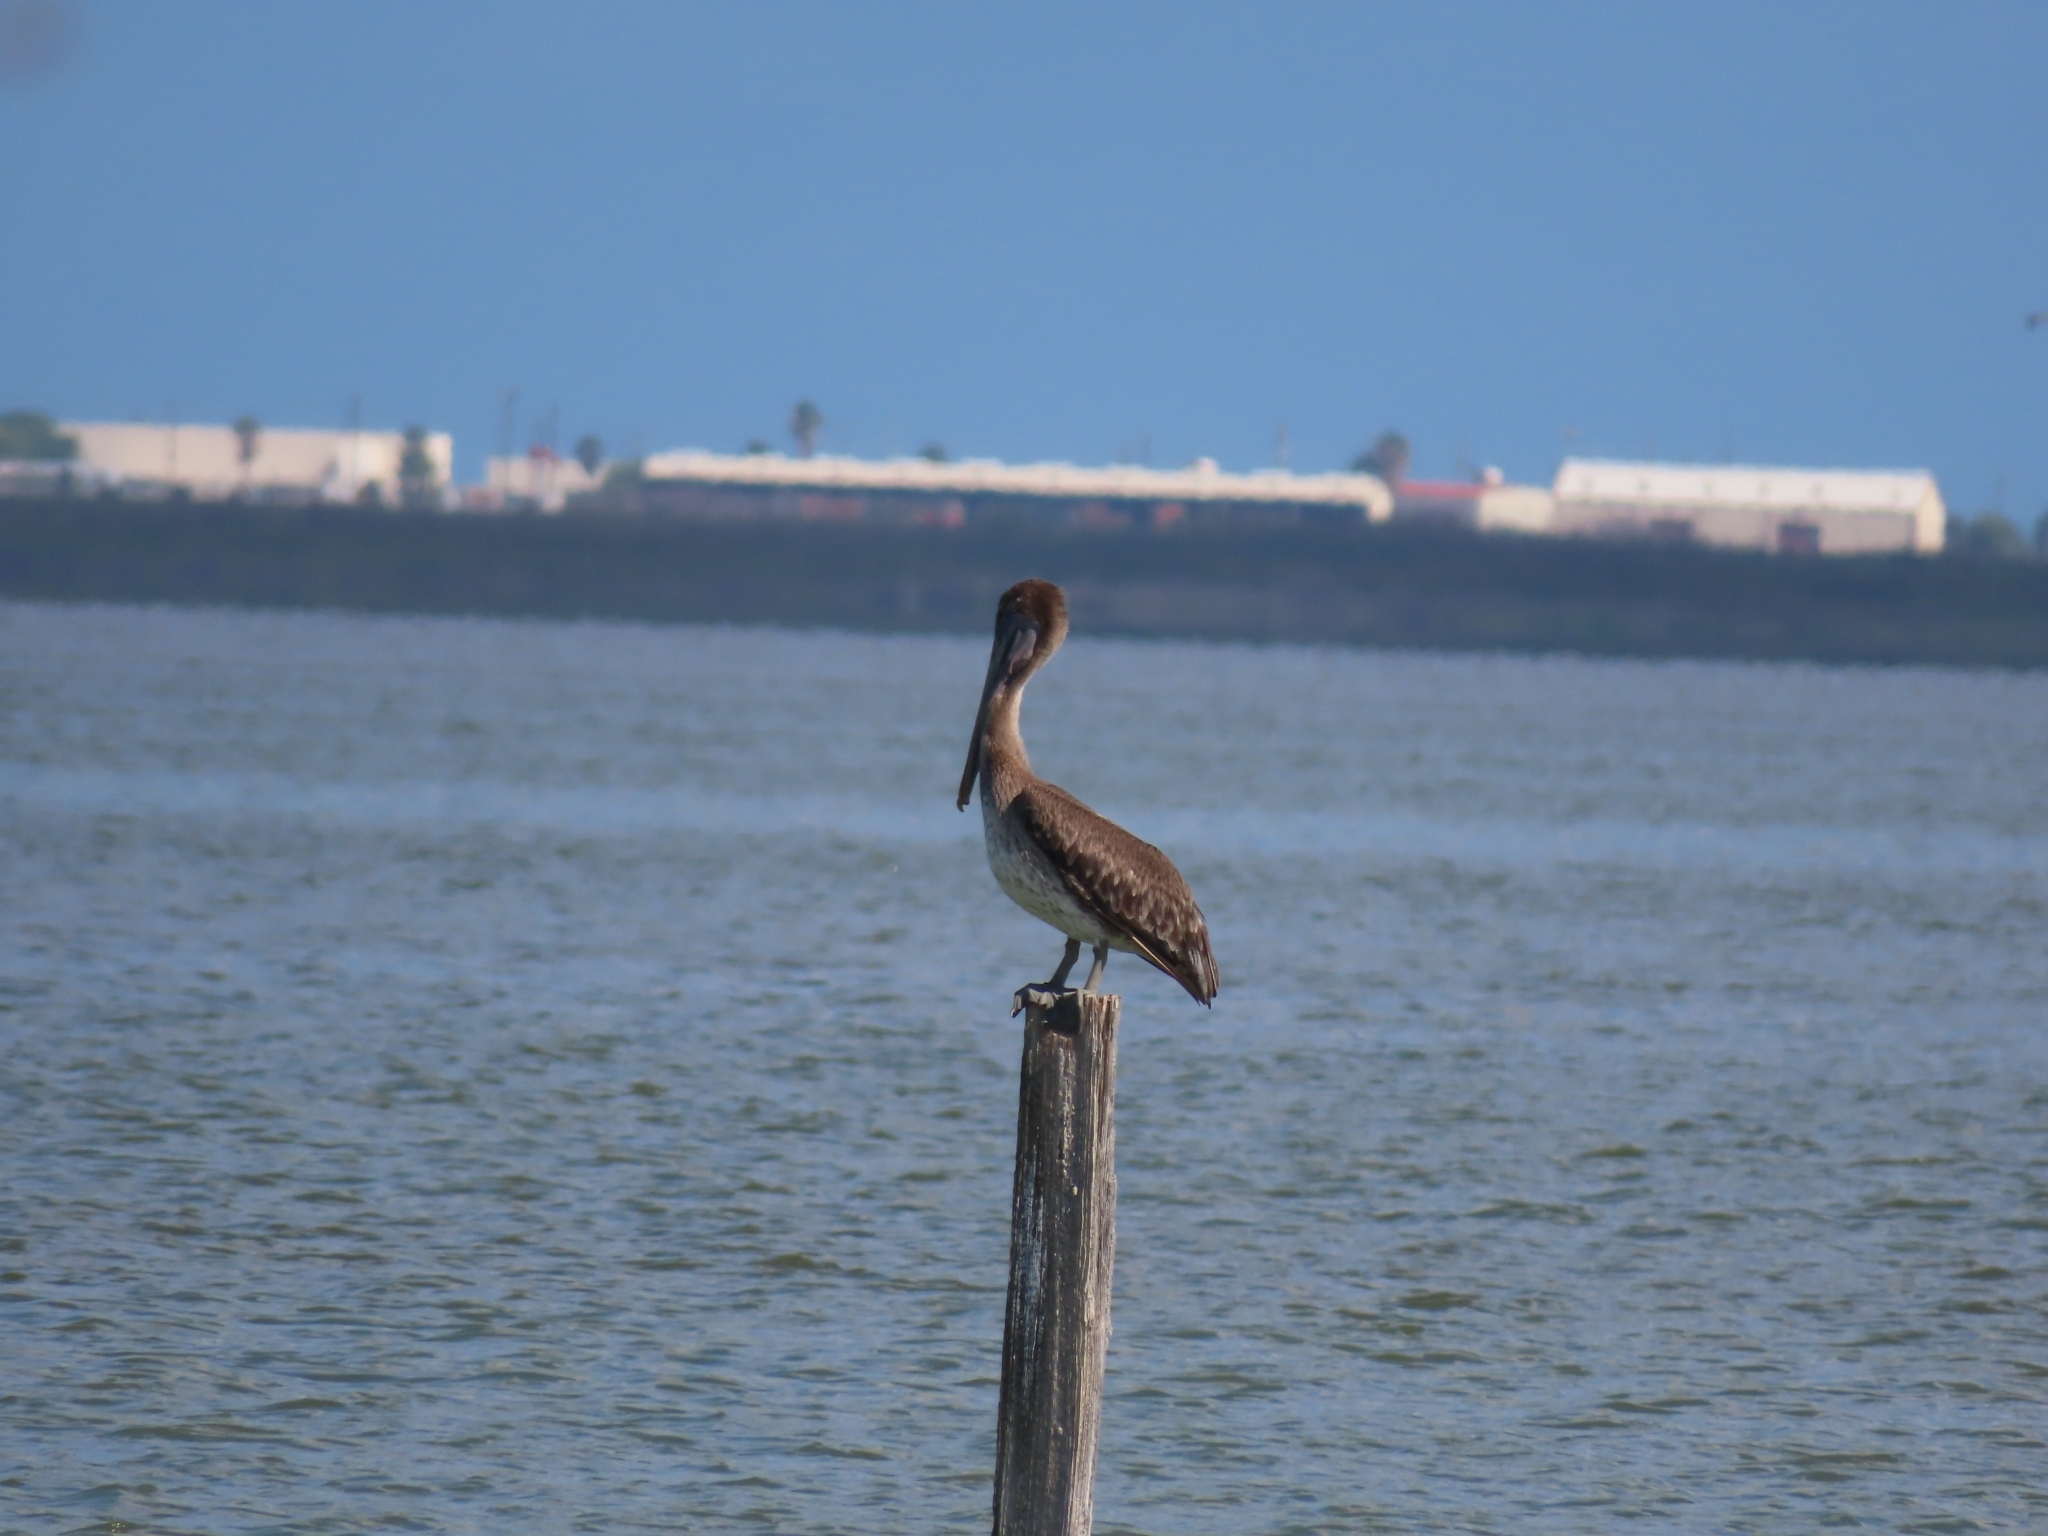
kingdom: Animalia
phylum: Chordata
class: Aves
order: Pelecaniformes
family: Pelecanidae
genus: Pelecanus
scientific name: Pelecanus occidentalis
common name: Brown pelican
